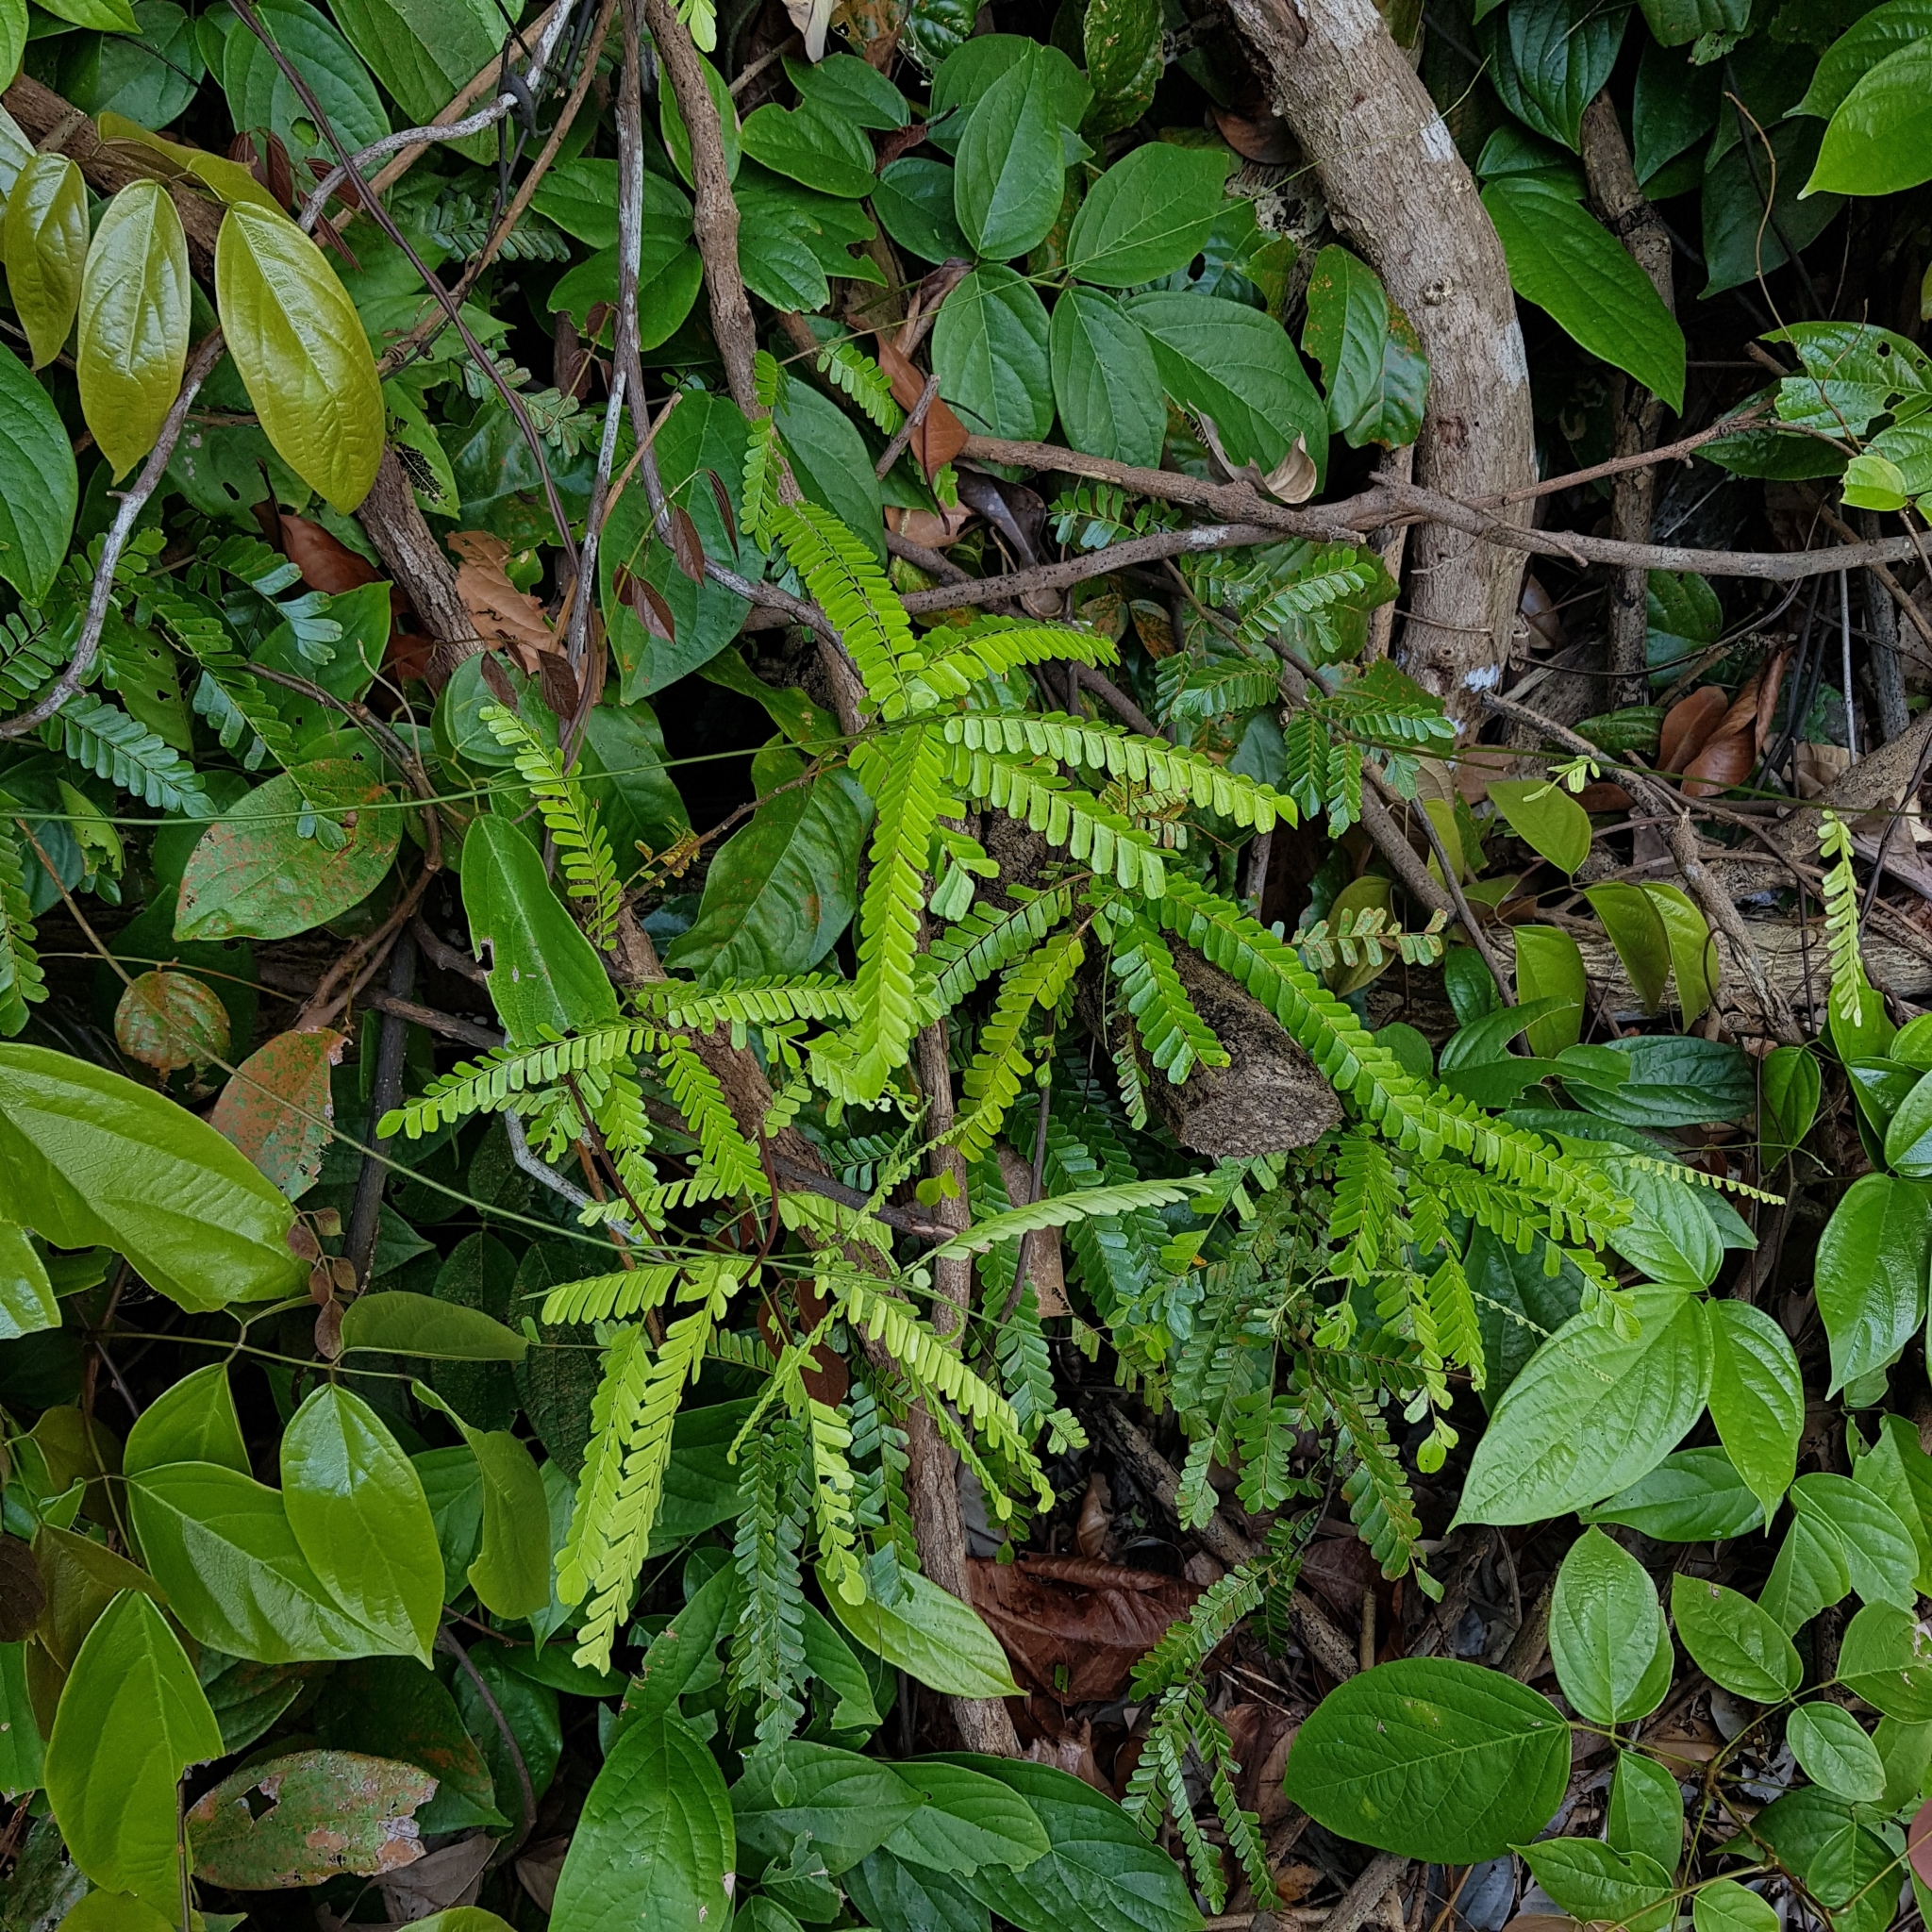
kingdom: Plantae
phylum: Tracheophyta
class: Magnoliopsida
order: Oxalidales
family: Connaraceae
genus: Rourea
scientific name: Rourea aspleniifolia
